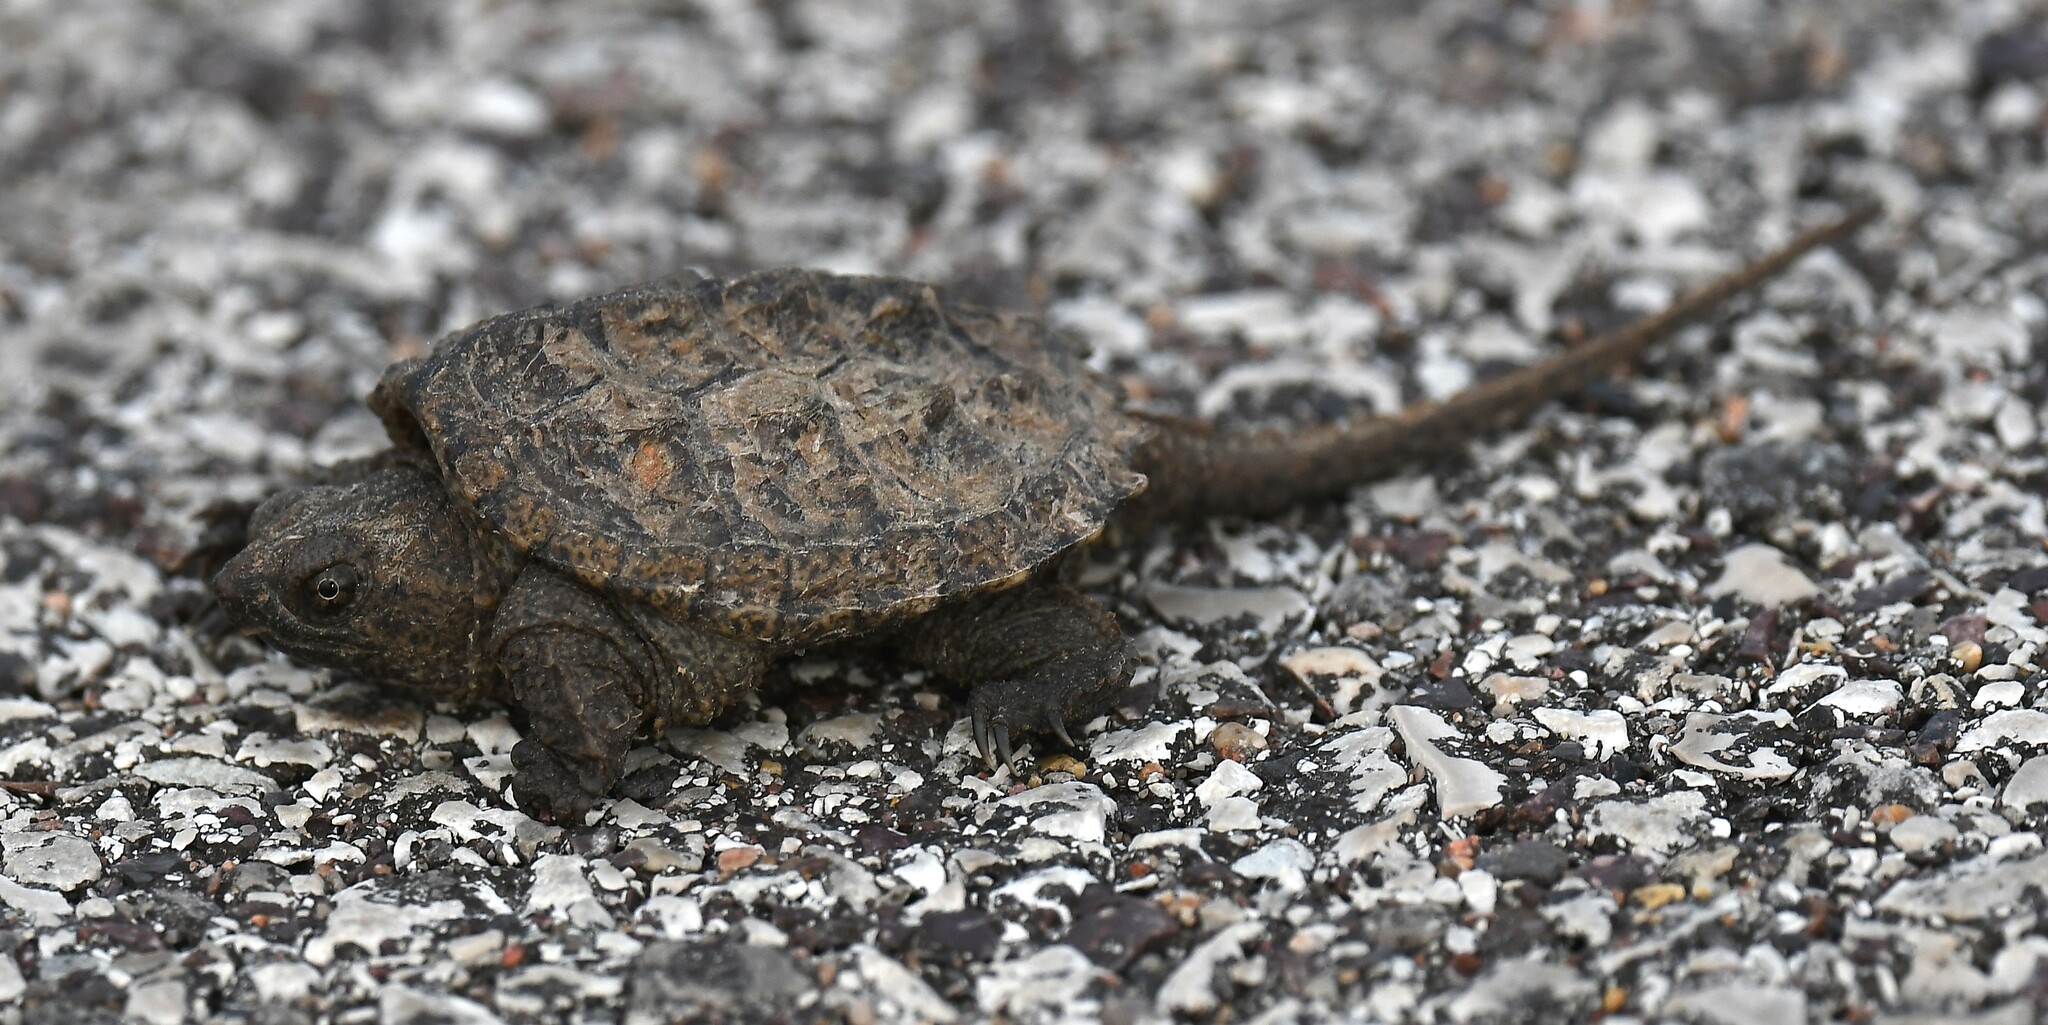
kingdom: Animalia
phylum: Chordata
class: Testudines
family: Chelydridae
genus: Chelydra
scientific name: Chelydra serpentina
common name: Common snapping turtle
